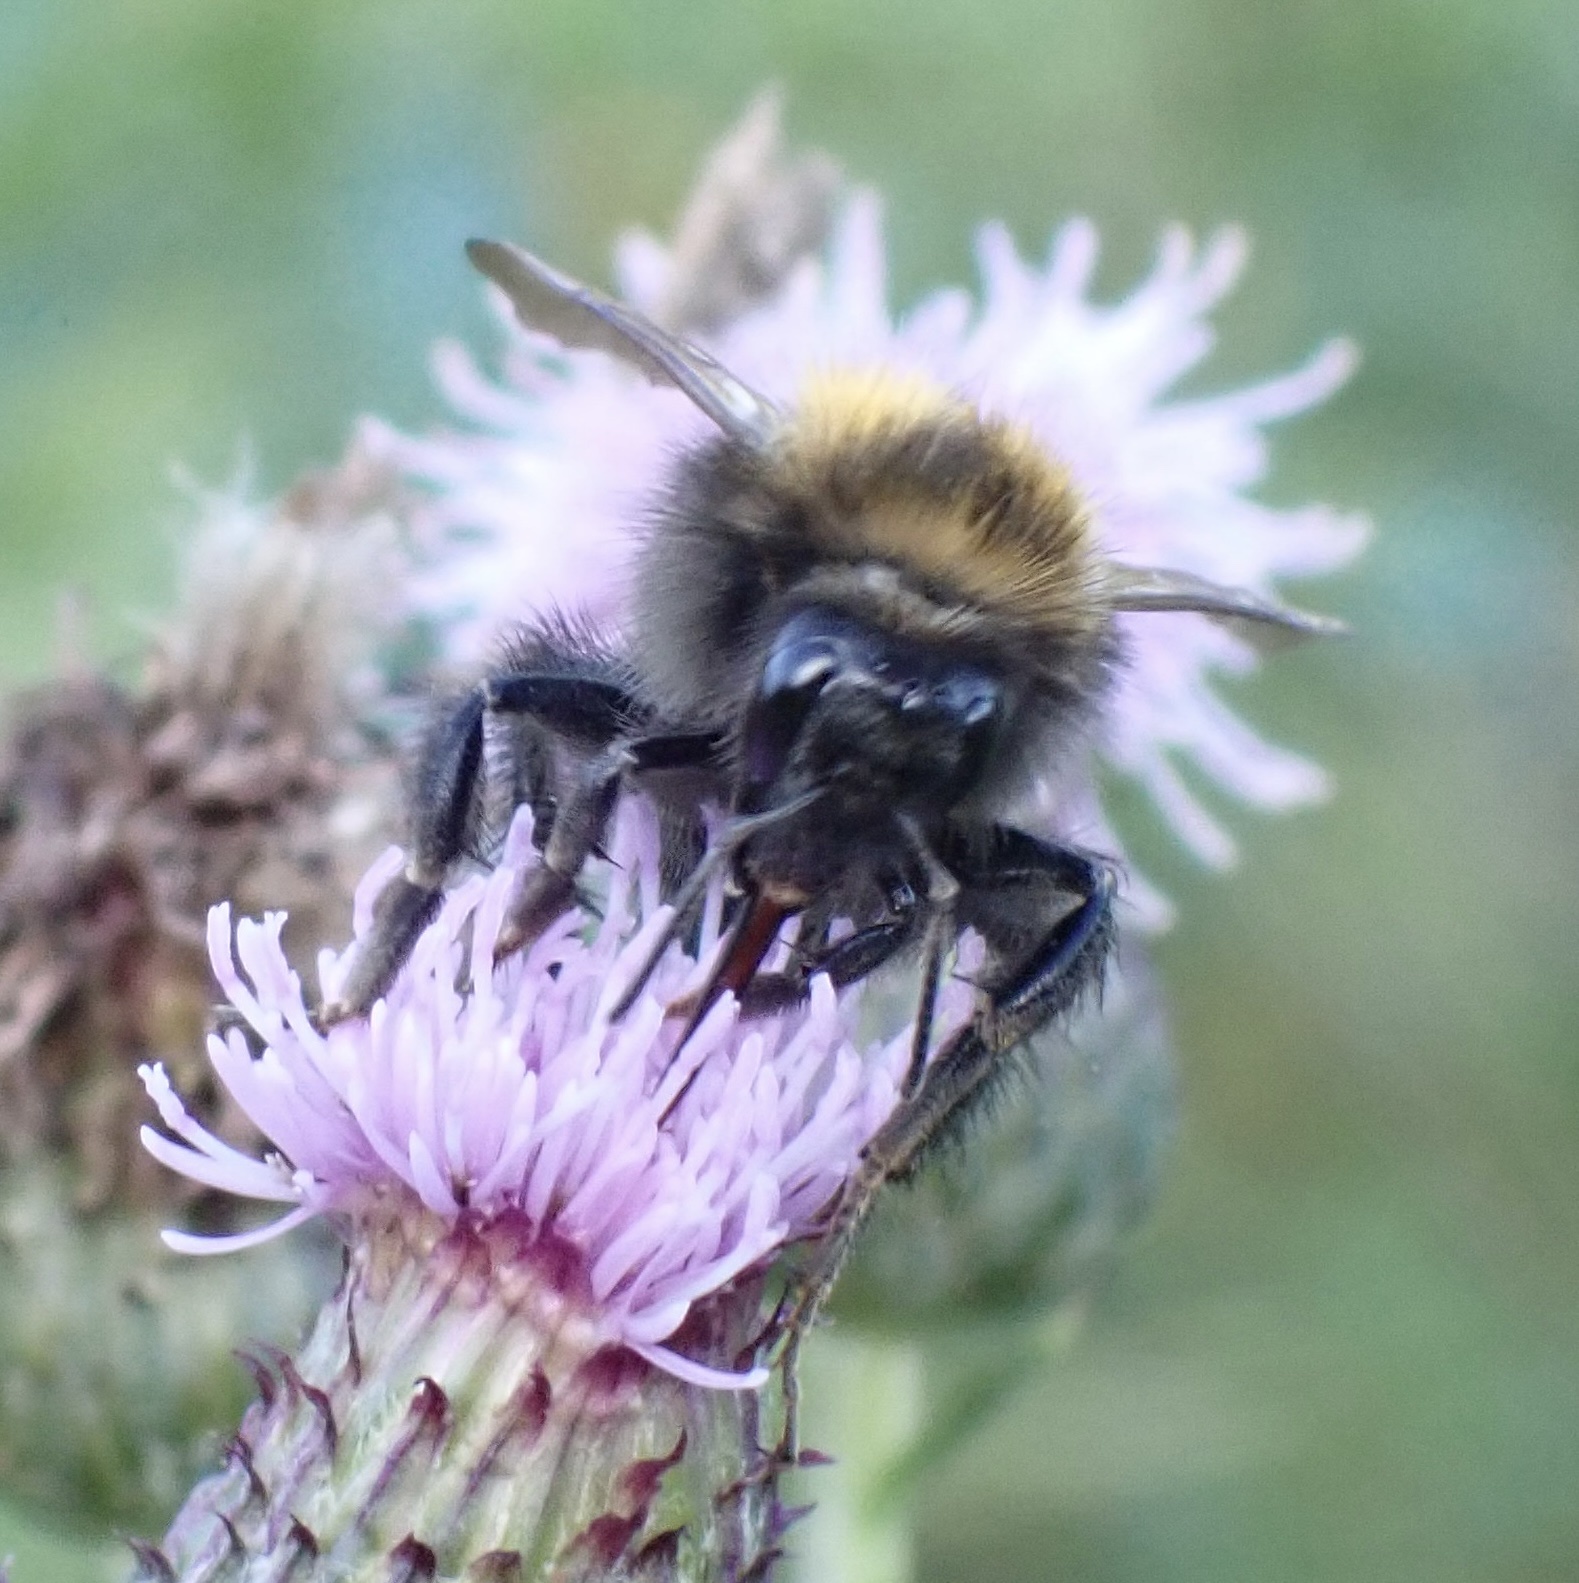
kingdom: Animalia
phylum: Arthropoda
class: Insecta
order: Hymenoptera
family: Apidae
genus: Bombus
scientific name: Bombus pascuorum
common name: Common carder bee
